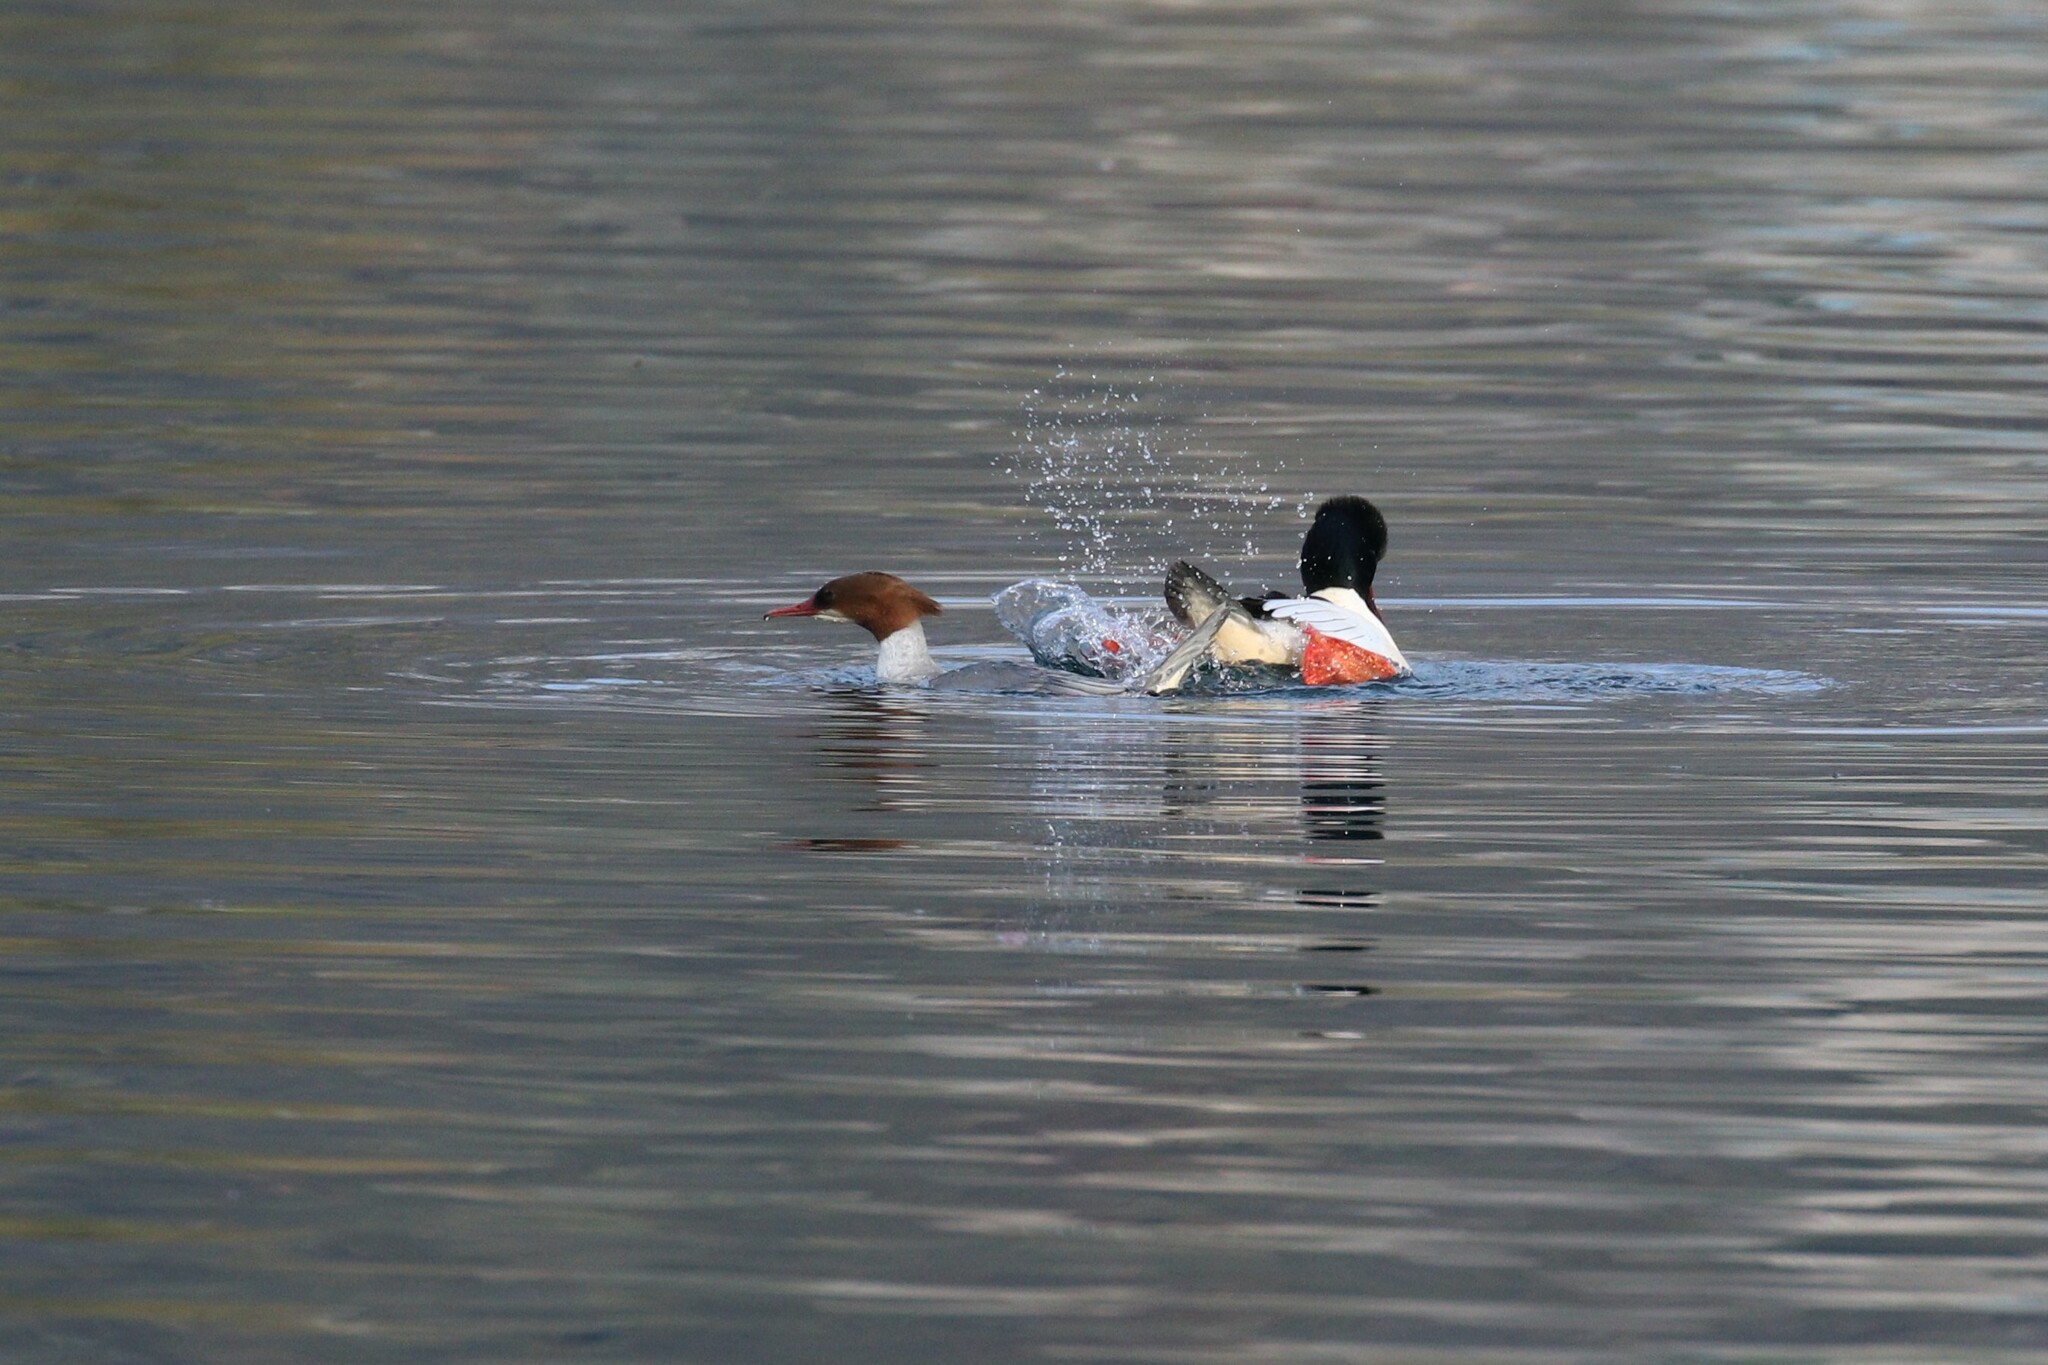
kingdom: Animalia
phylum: Chordata
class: Aves
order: Anseriformes
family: Anatidae
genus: Mergus
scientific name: Mergus merganser
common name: Common merganser
